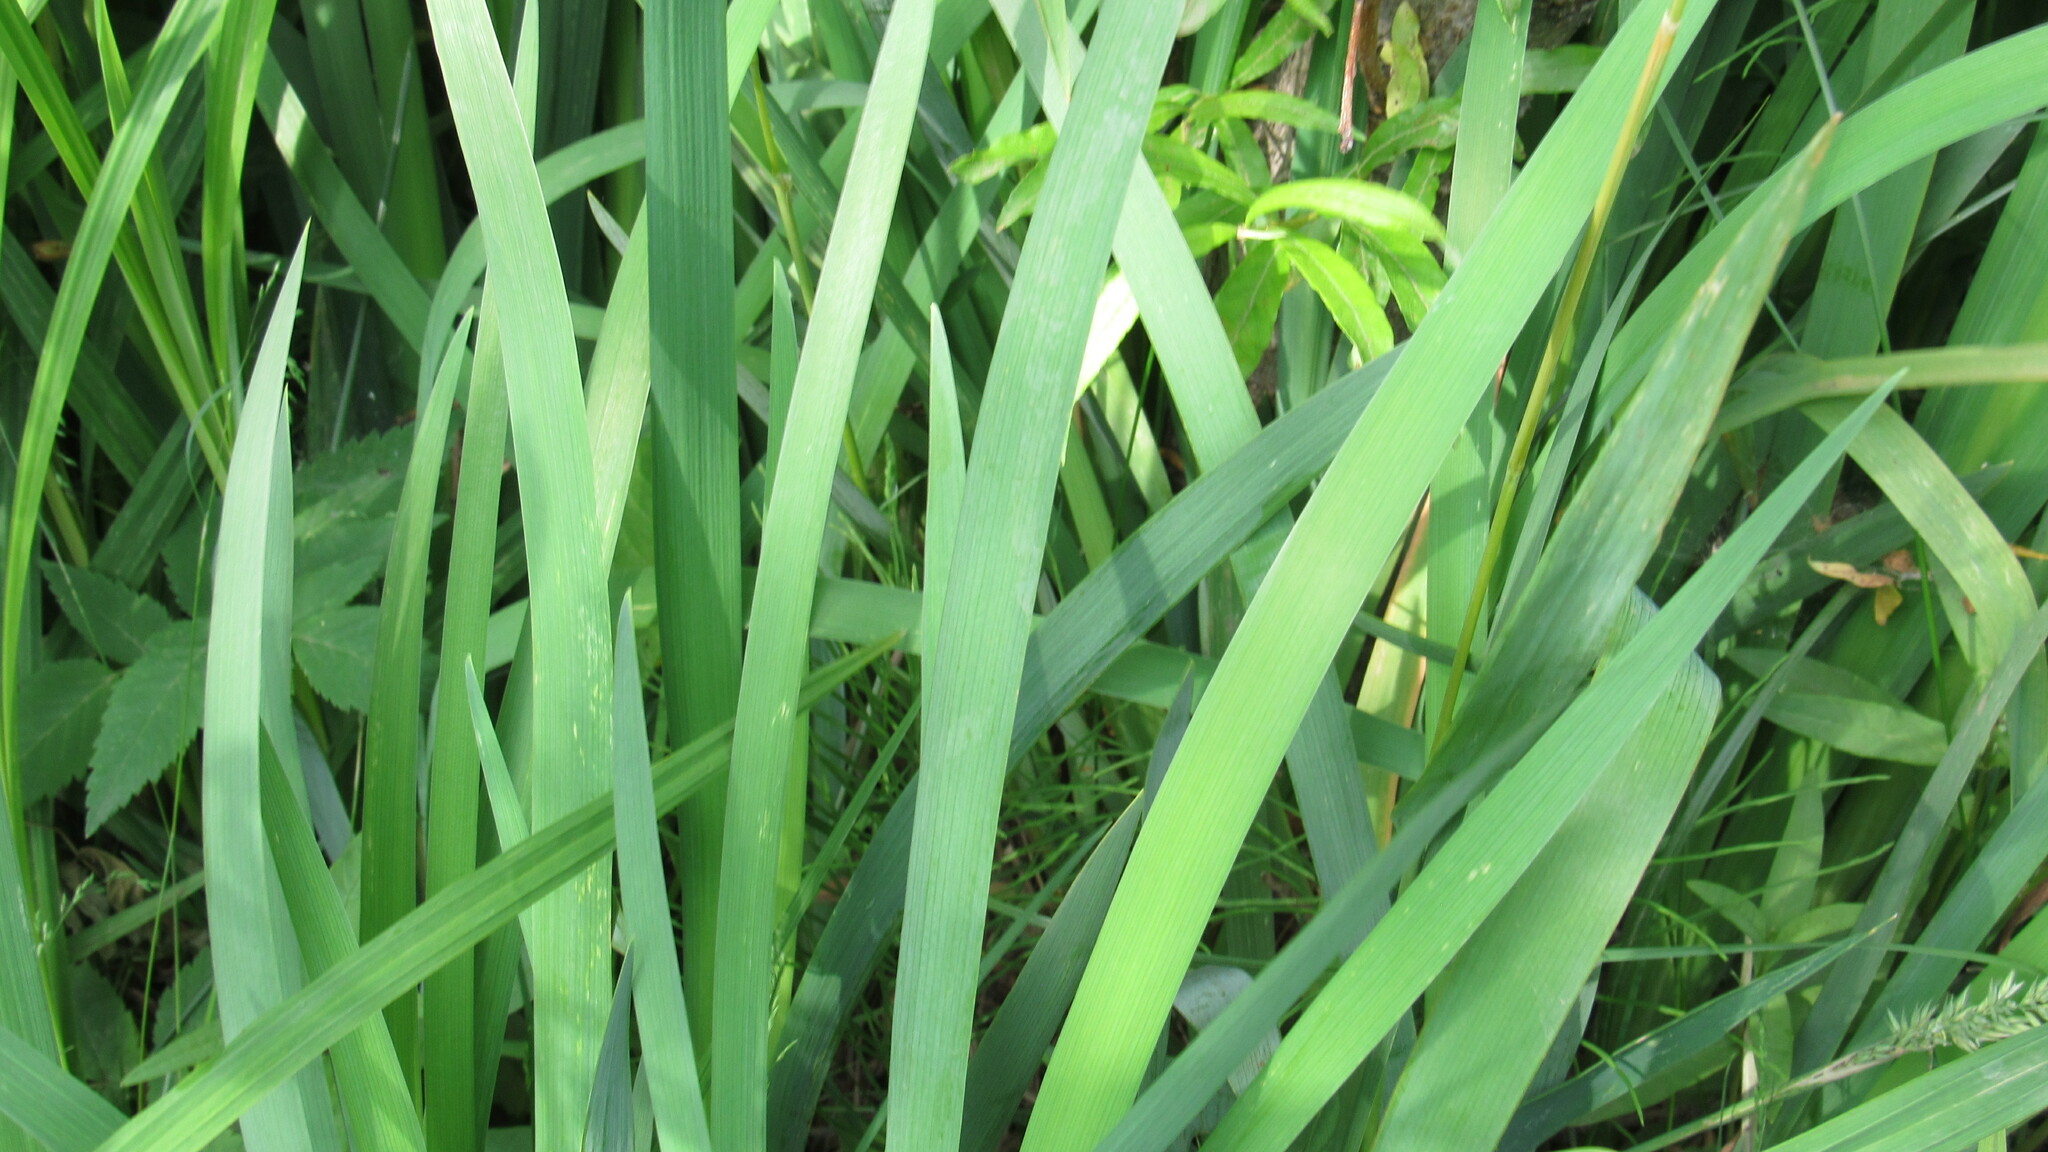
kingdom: Plantae
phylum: Tracheophyta
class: Liliopsida
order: Asparagales
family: Iridaceae
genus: Iris
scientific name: Iris setosa
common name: Arctic blue flag
